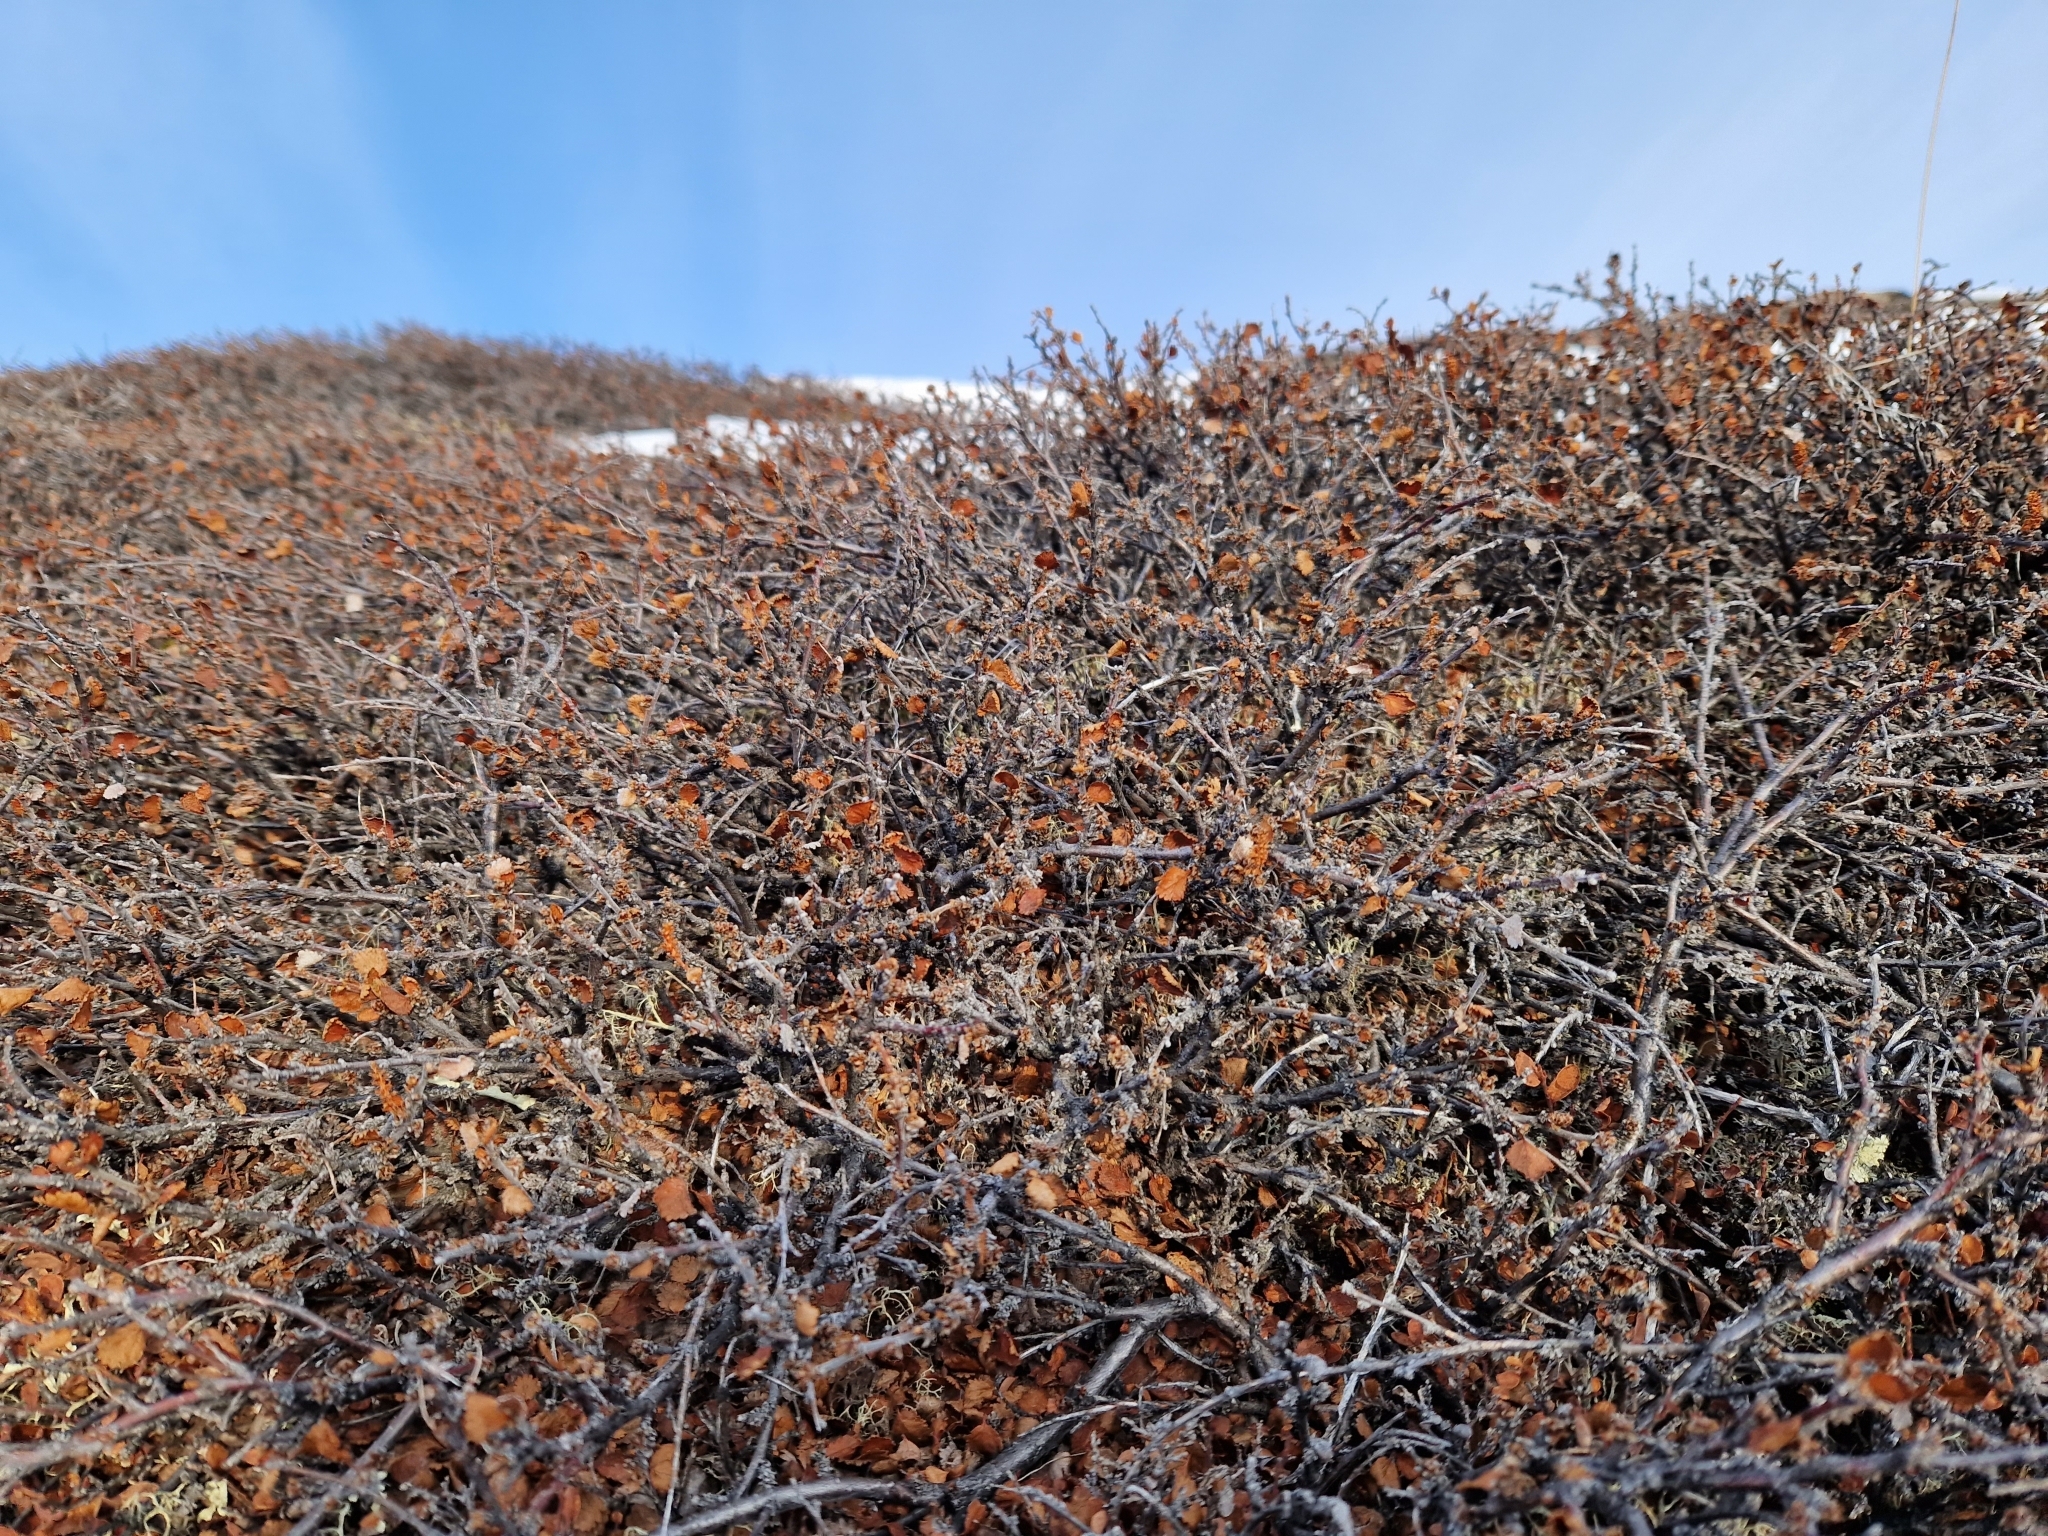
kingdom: Plantae
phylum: Tracheophyta
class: Magnoliopsida
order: Fagales
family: Betulaceae
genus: Betula
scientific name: Betula nana
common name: Arctic dwarf birch
